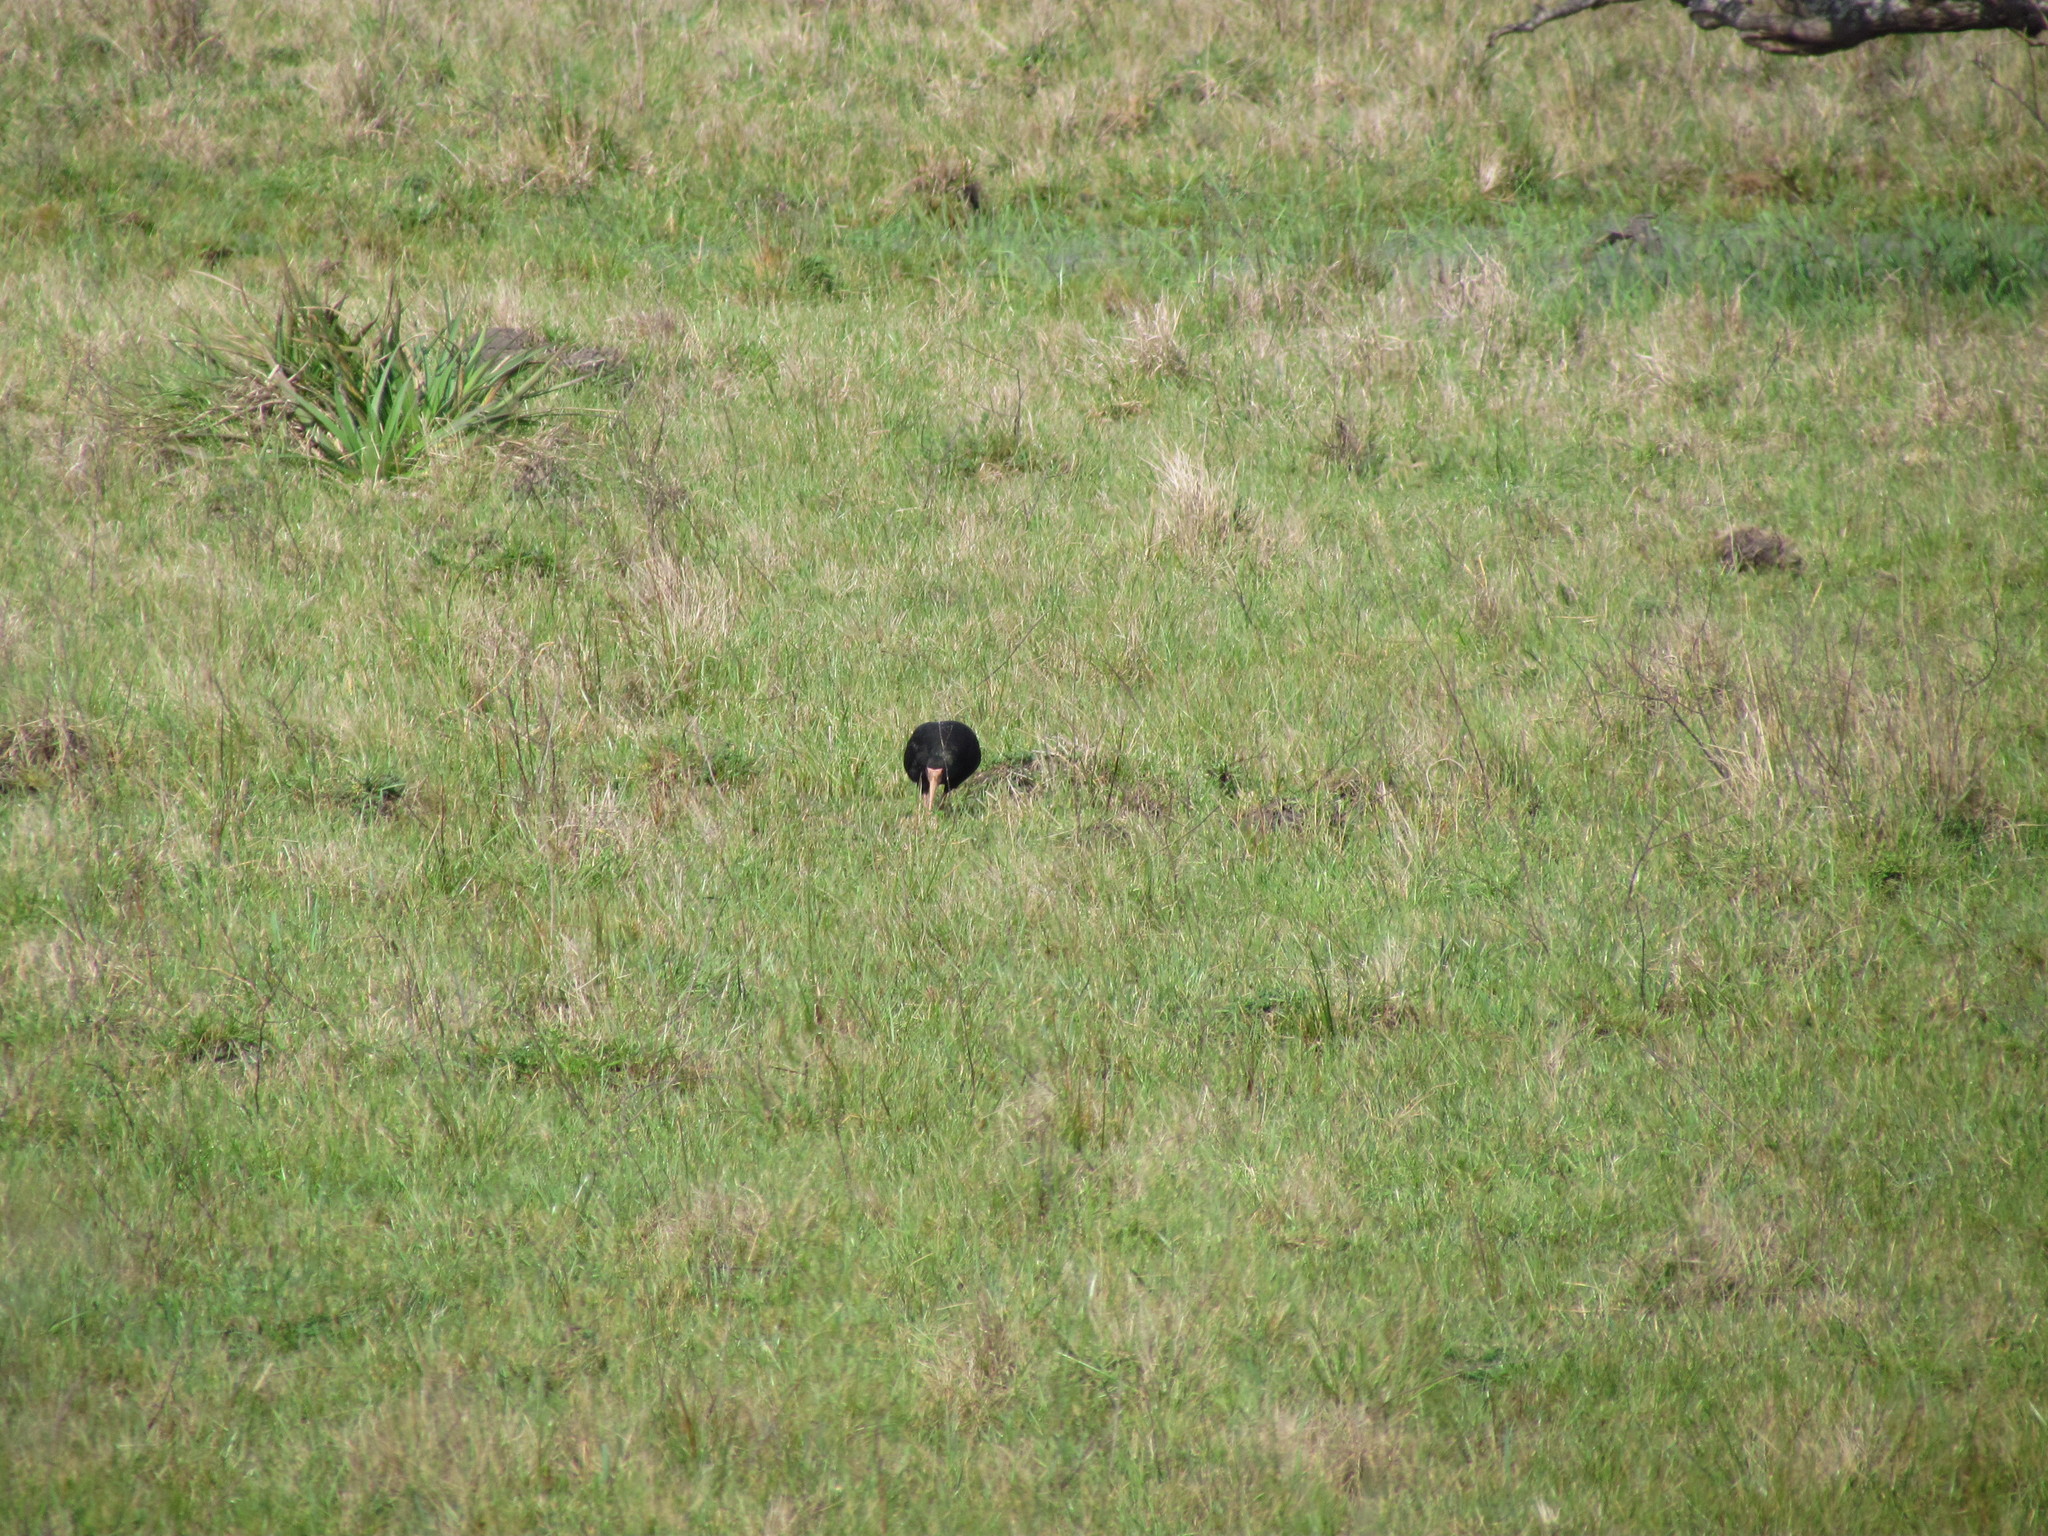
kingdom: Animalia
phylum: Chordata
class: Aves
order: Pelecaniformes
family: Threskiornithidae
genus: Phimosus
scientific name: Phimosus infuscatus
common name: Bare-faced ibis
